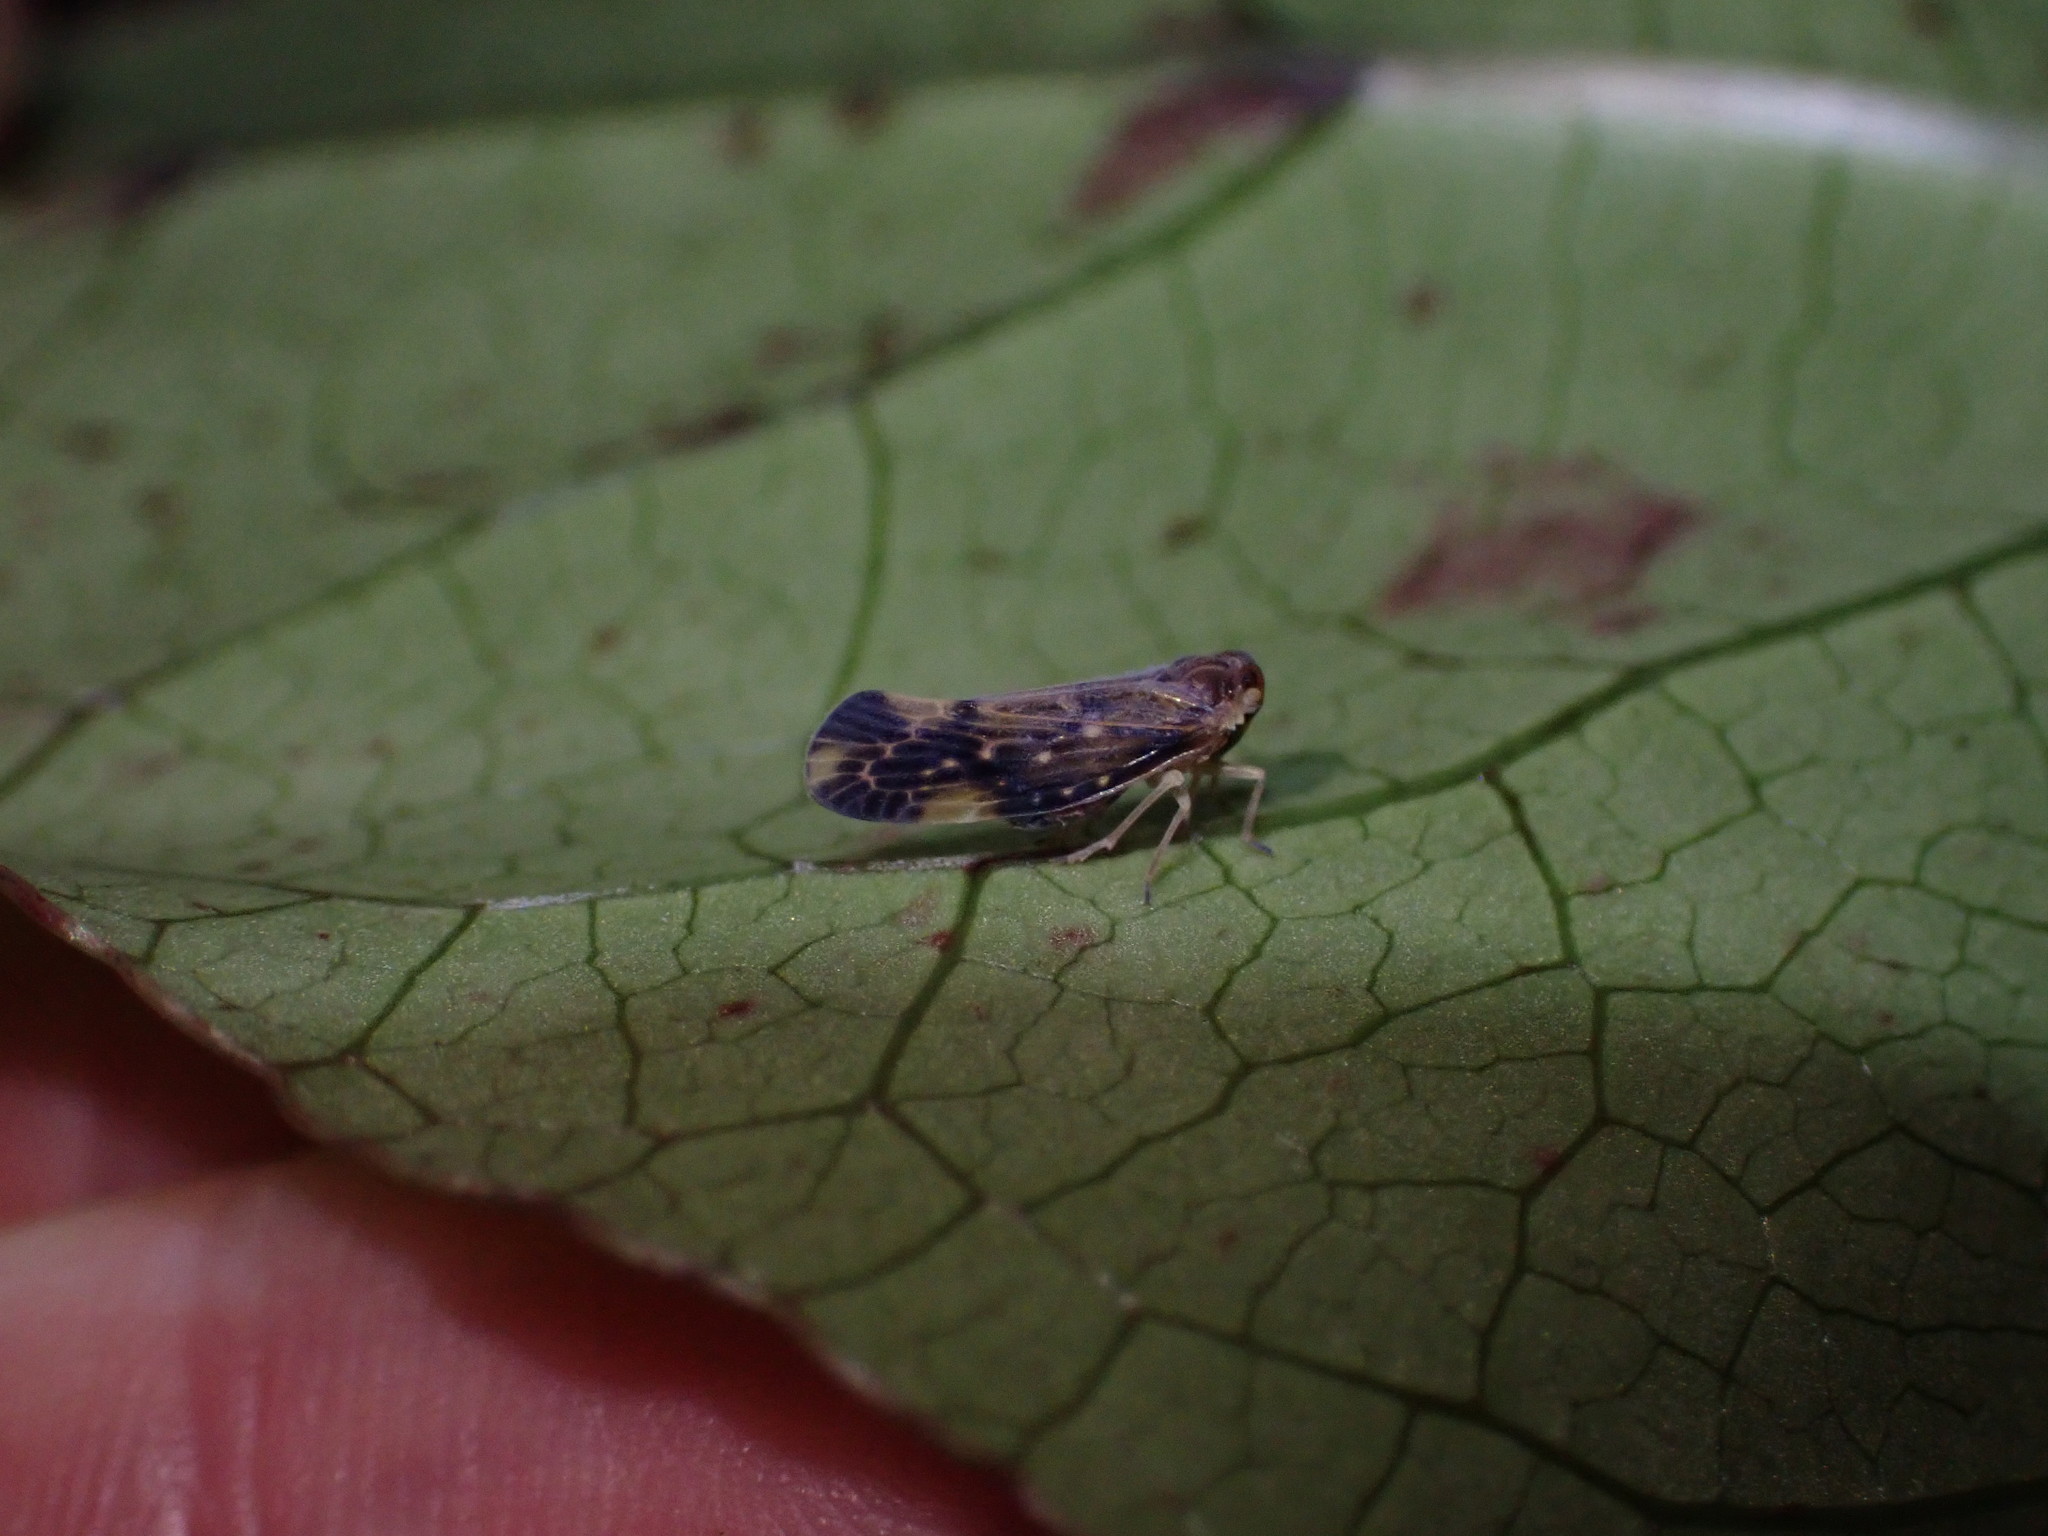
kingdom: Animalia
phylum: Arthropoda
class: Insecta
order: Hemiptera
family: Derbidae
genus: Eocenchrea
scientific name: Eocenchrea maorica
